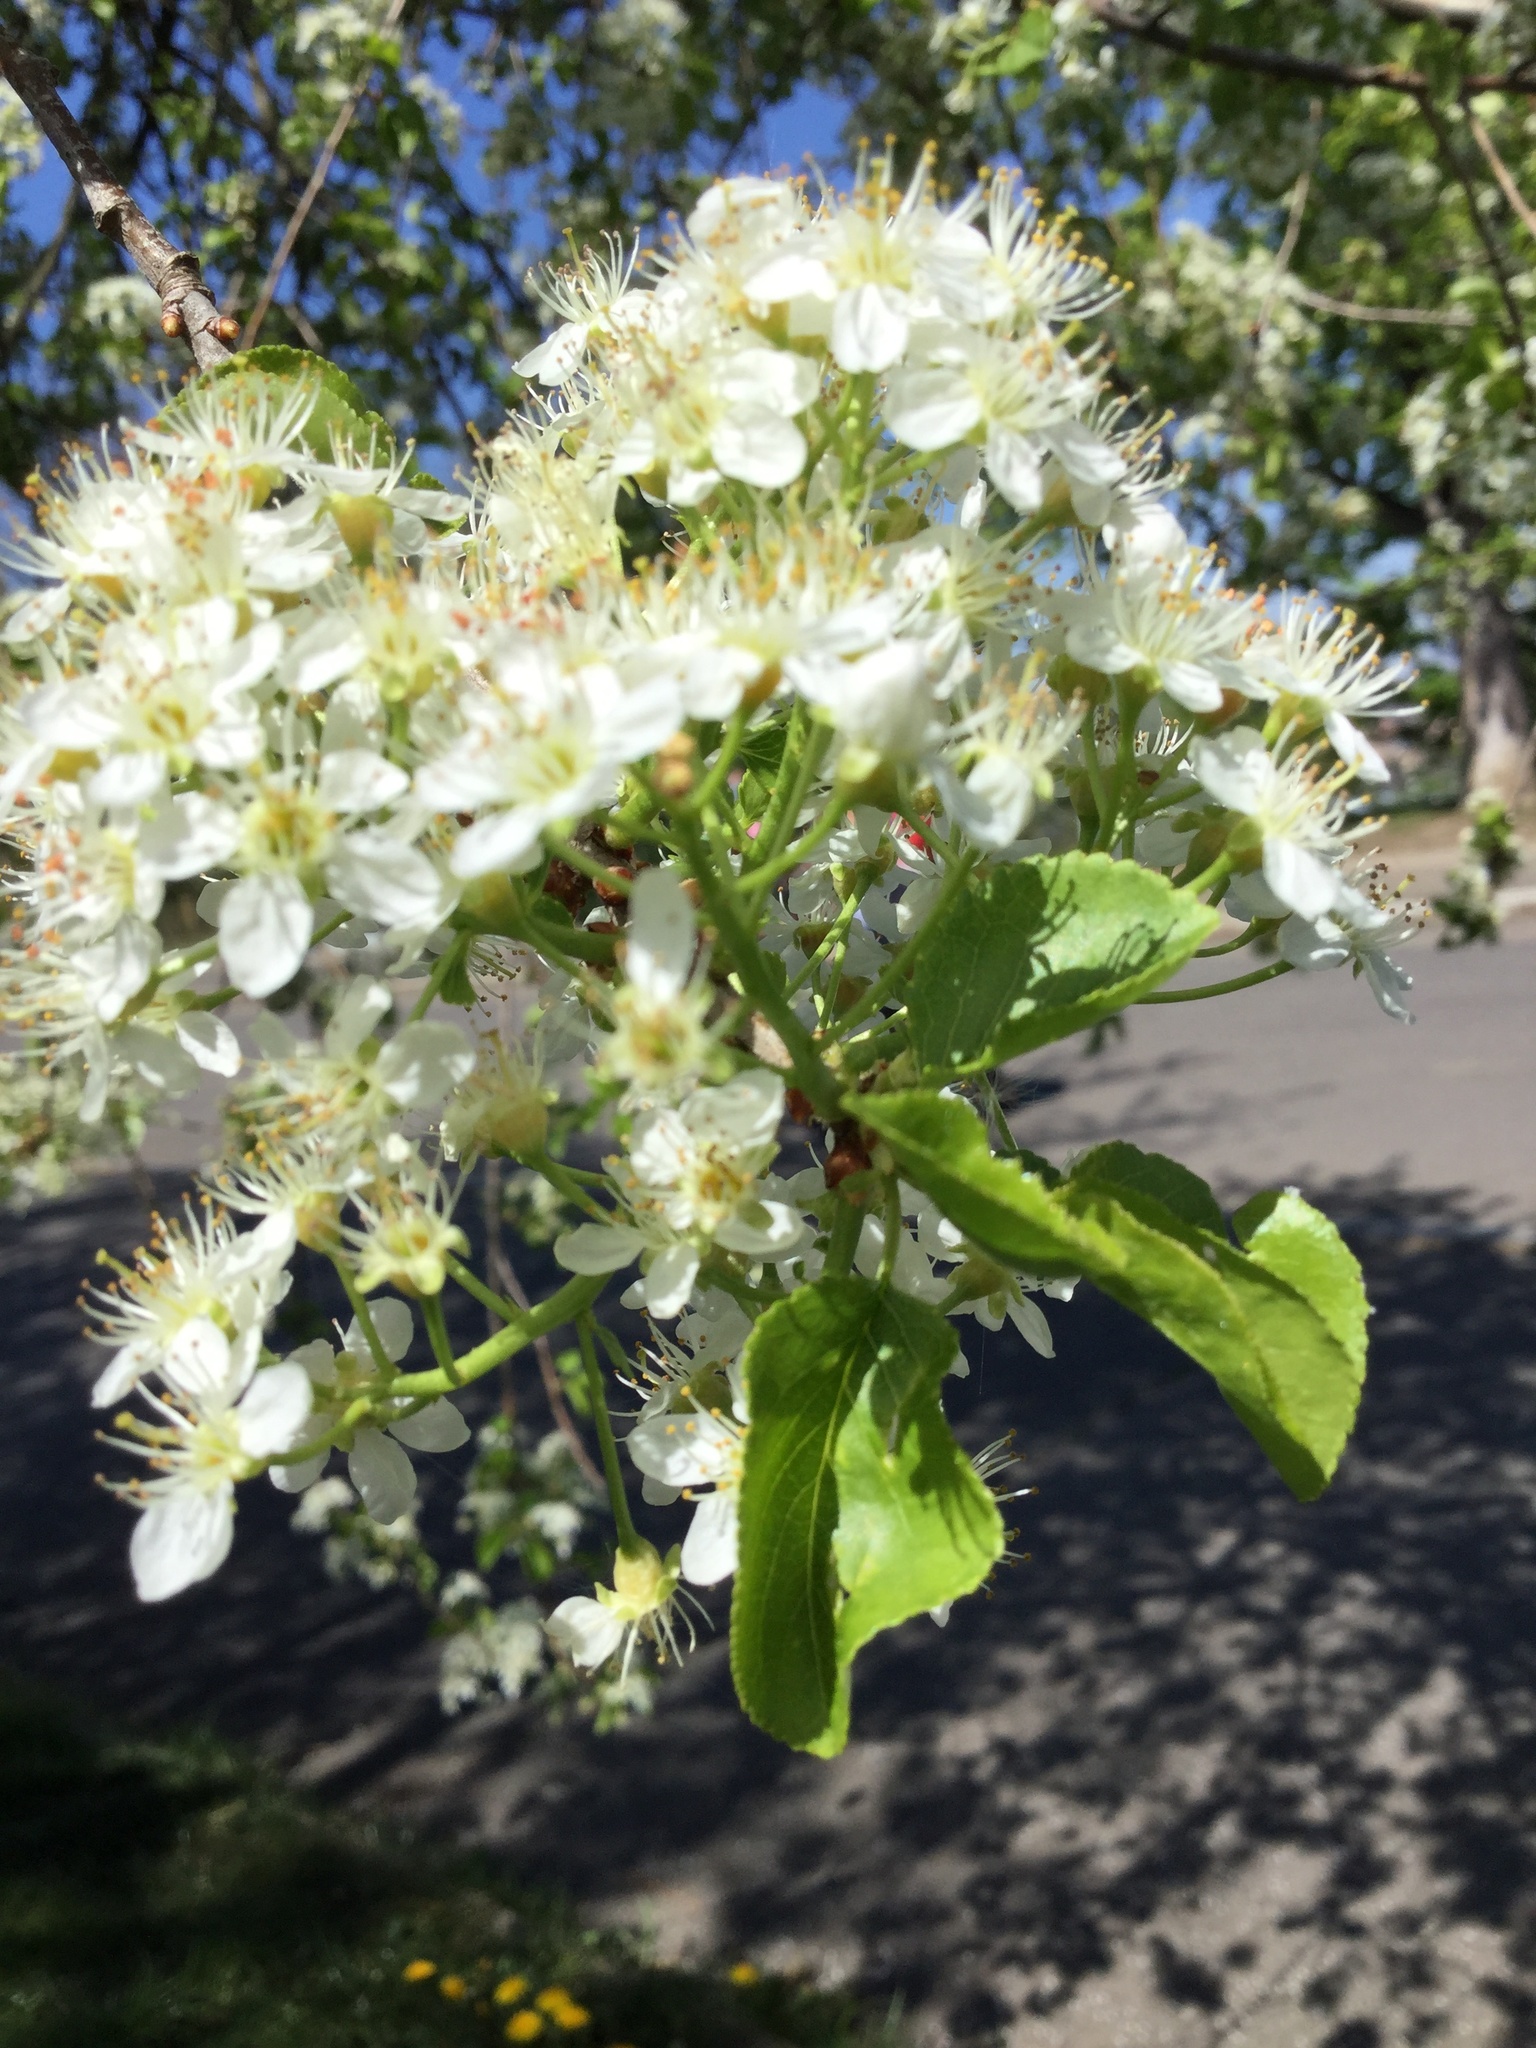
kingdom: Plantae
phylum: Tracheophyta
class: Magnoliopsida
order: Rosales
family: Rosaceae
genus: Prunus
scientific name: Prunus mahaleb
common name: Mahaleb cherry
